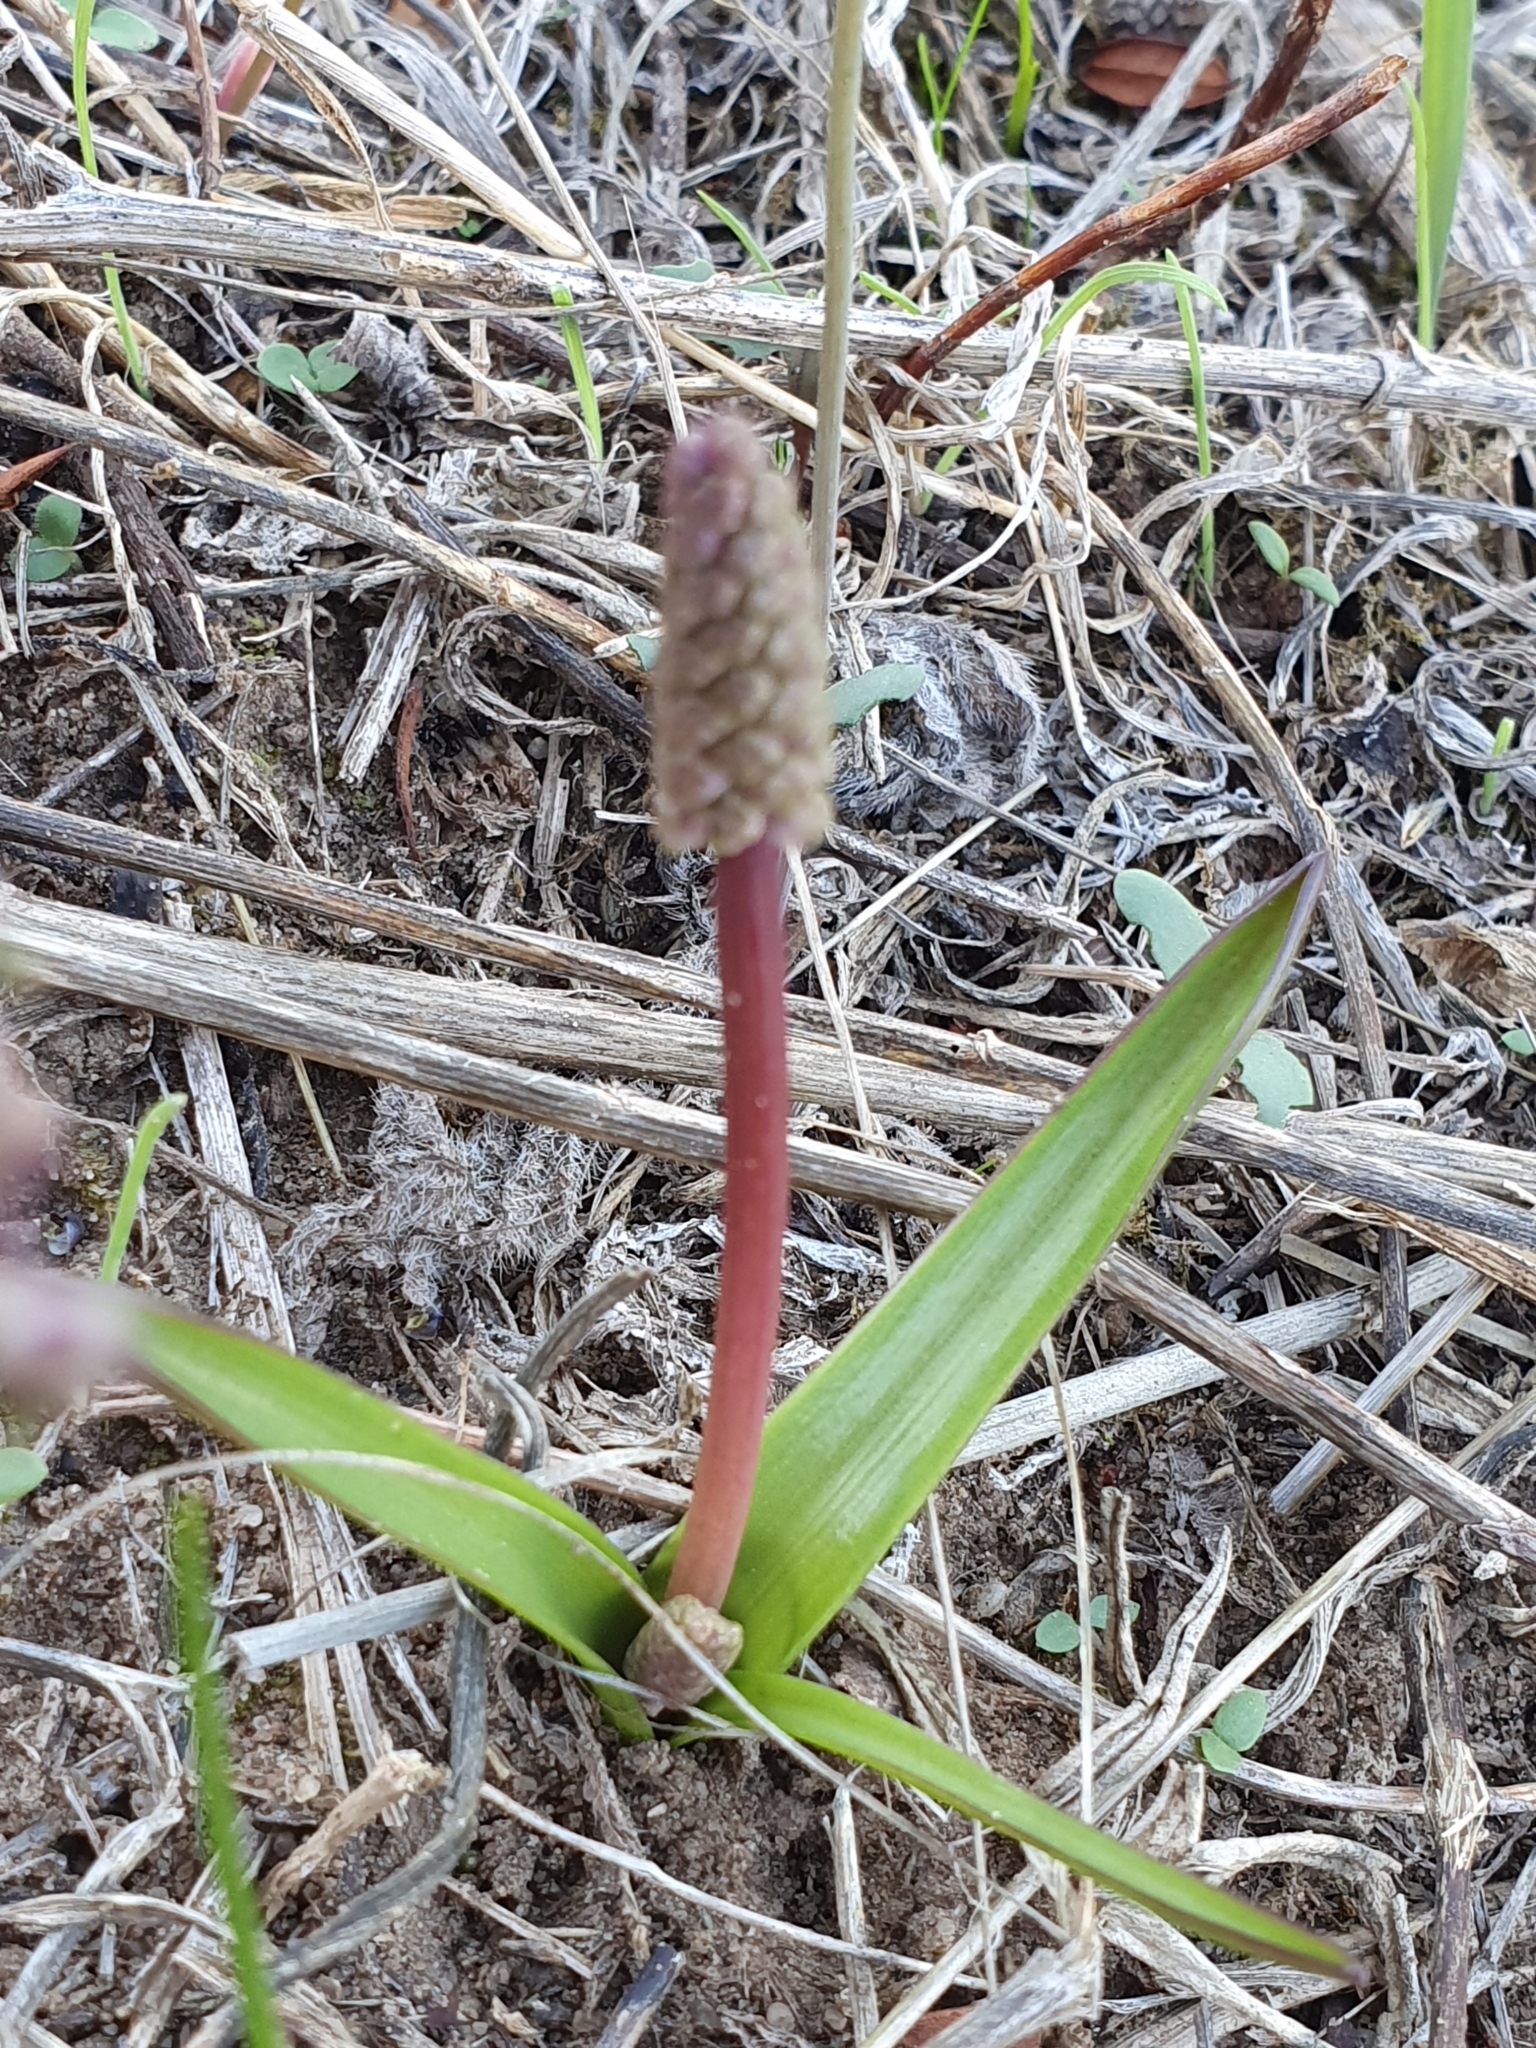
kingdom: Plantae
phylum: Tracheophyta
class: Liliopsida
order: Asparagales
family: Asparagaceae
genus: Prospero
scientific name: Prospero obtusifolium
